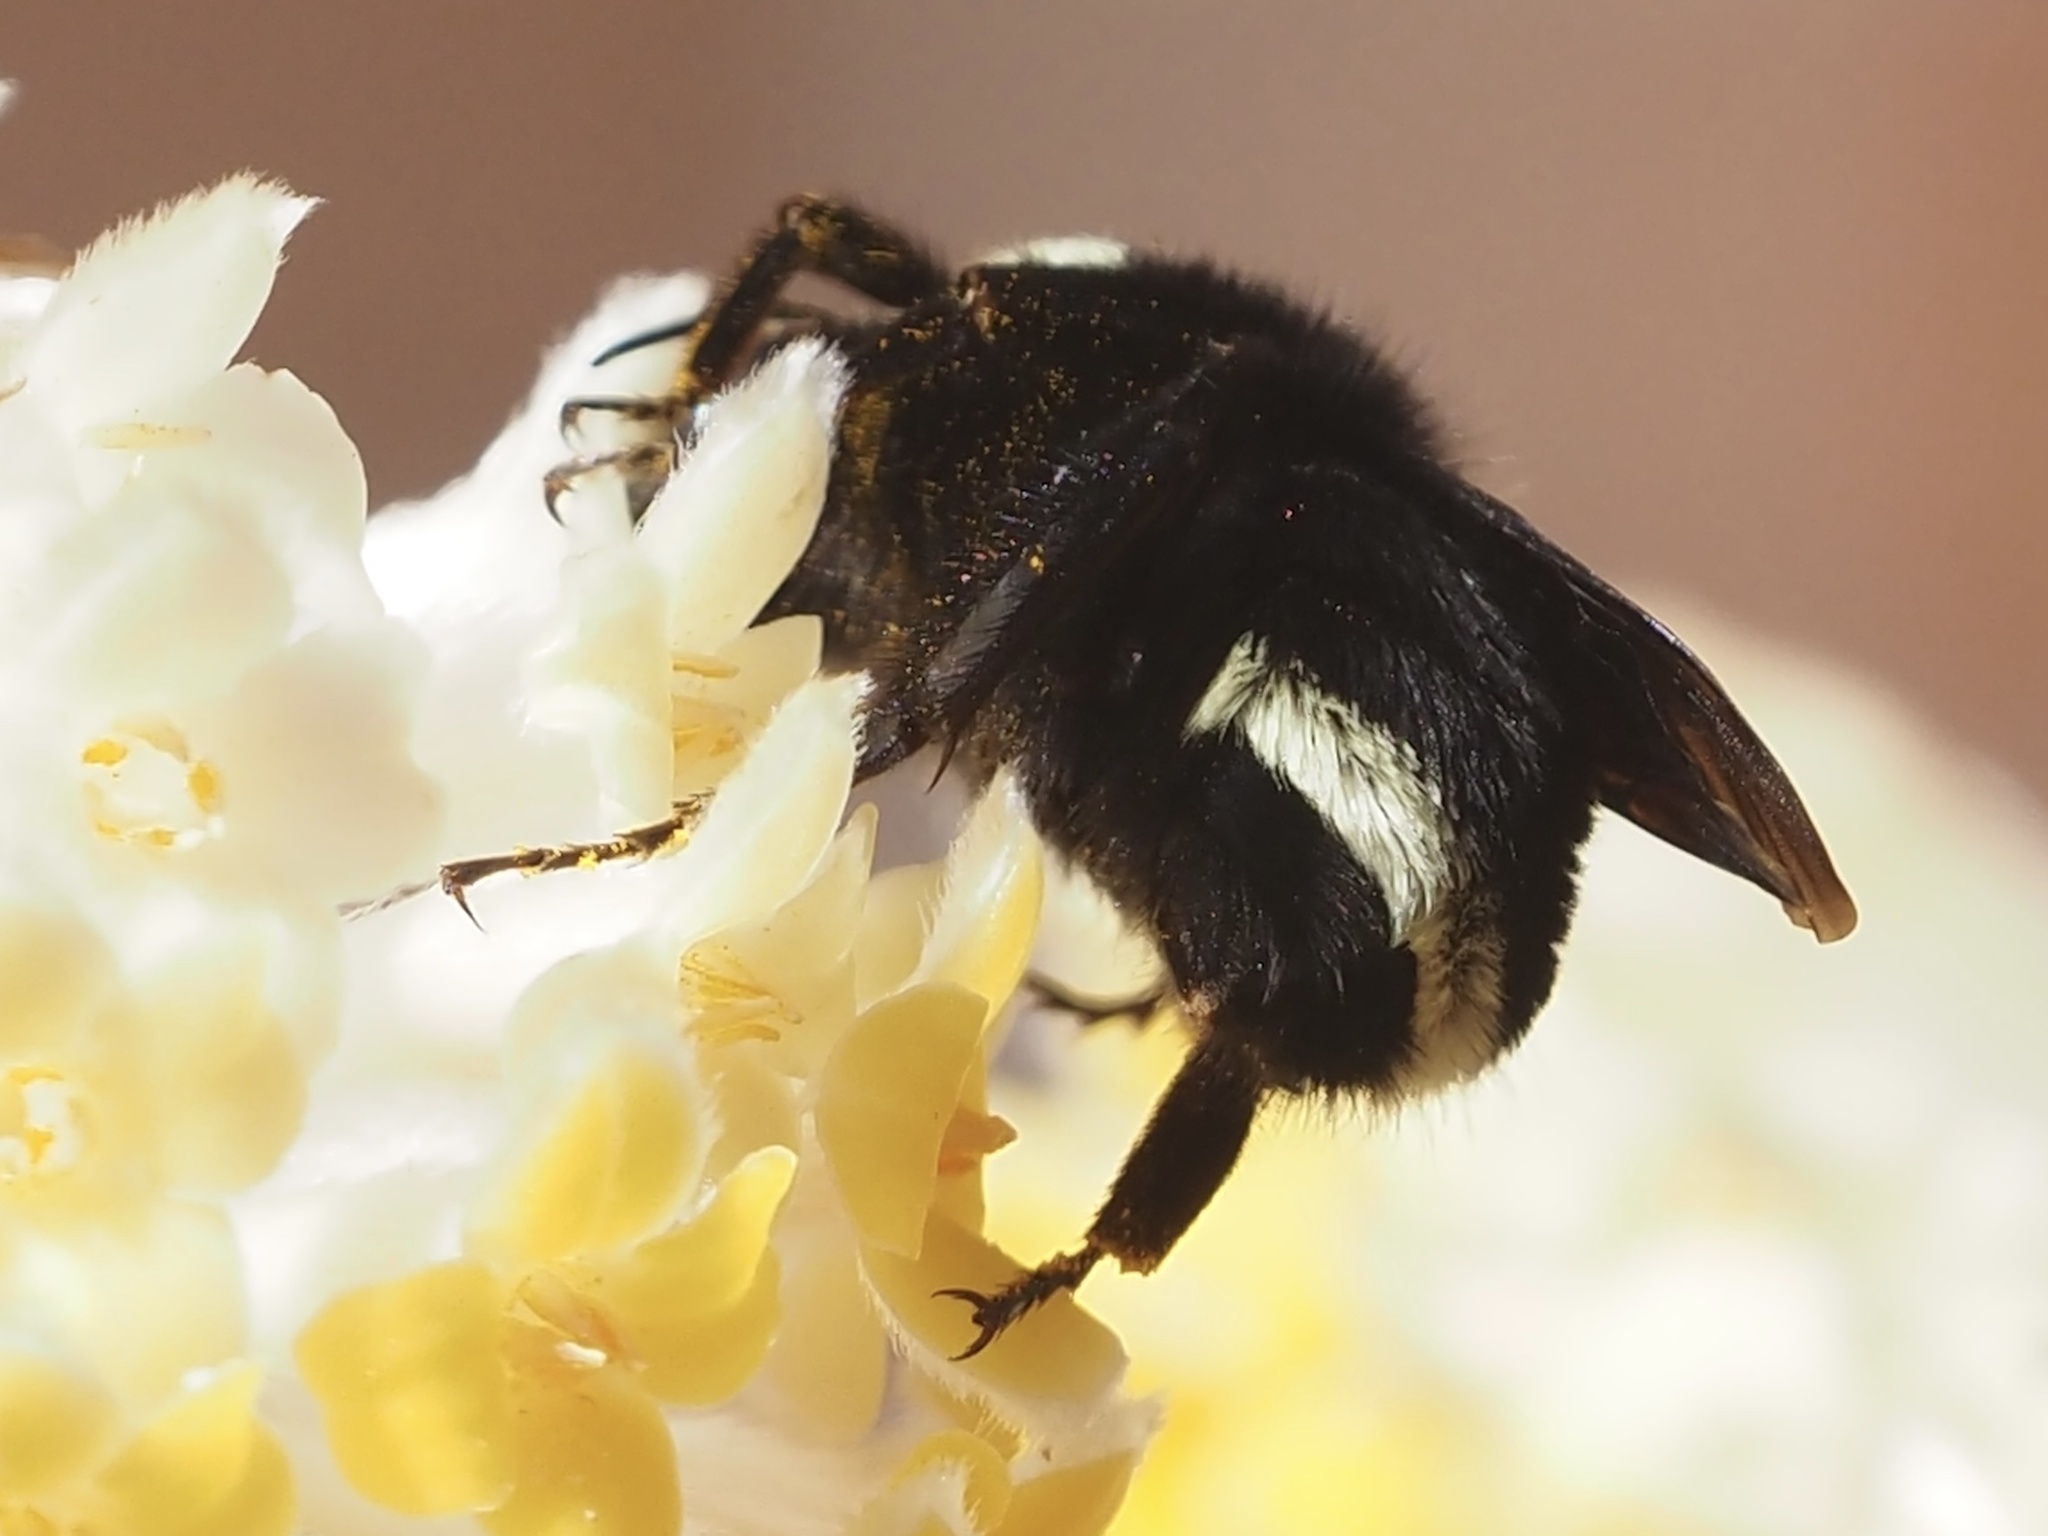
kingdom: Animalia
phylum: Arthropoda
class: Insecta
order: Hymenoptera
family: Apidae
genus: Bombus
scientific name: Bombus vosnesenskii
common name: Vosnesensky bumble bee
